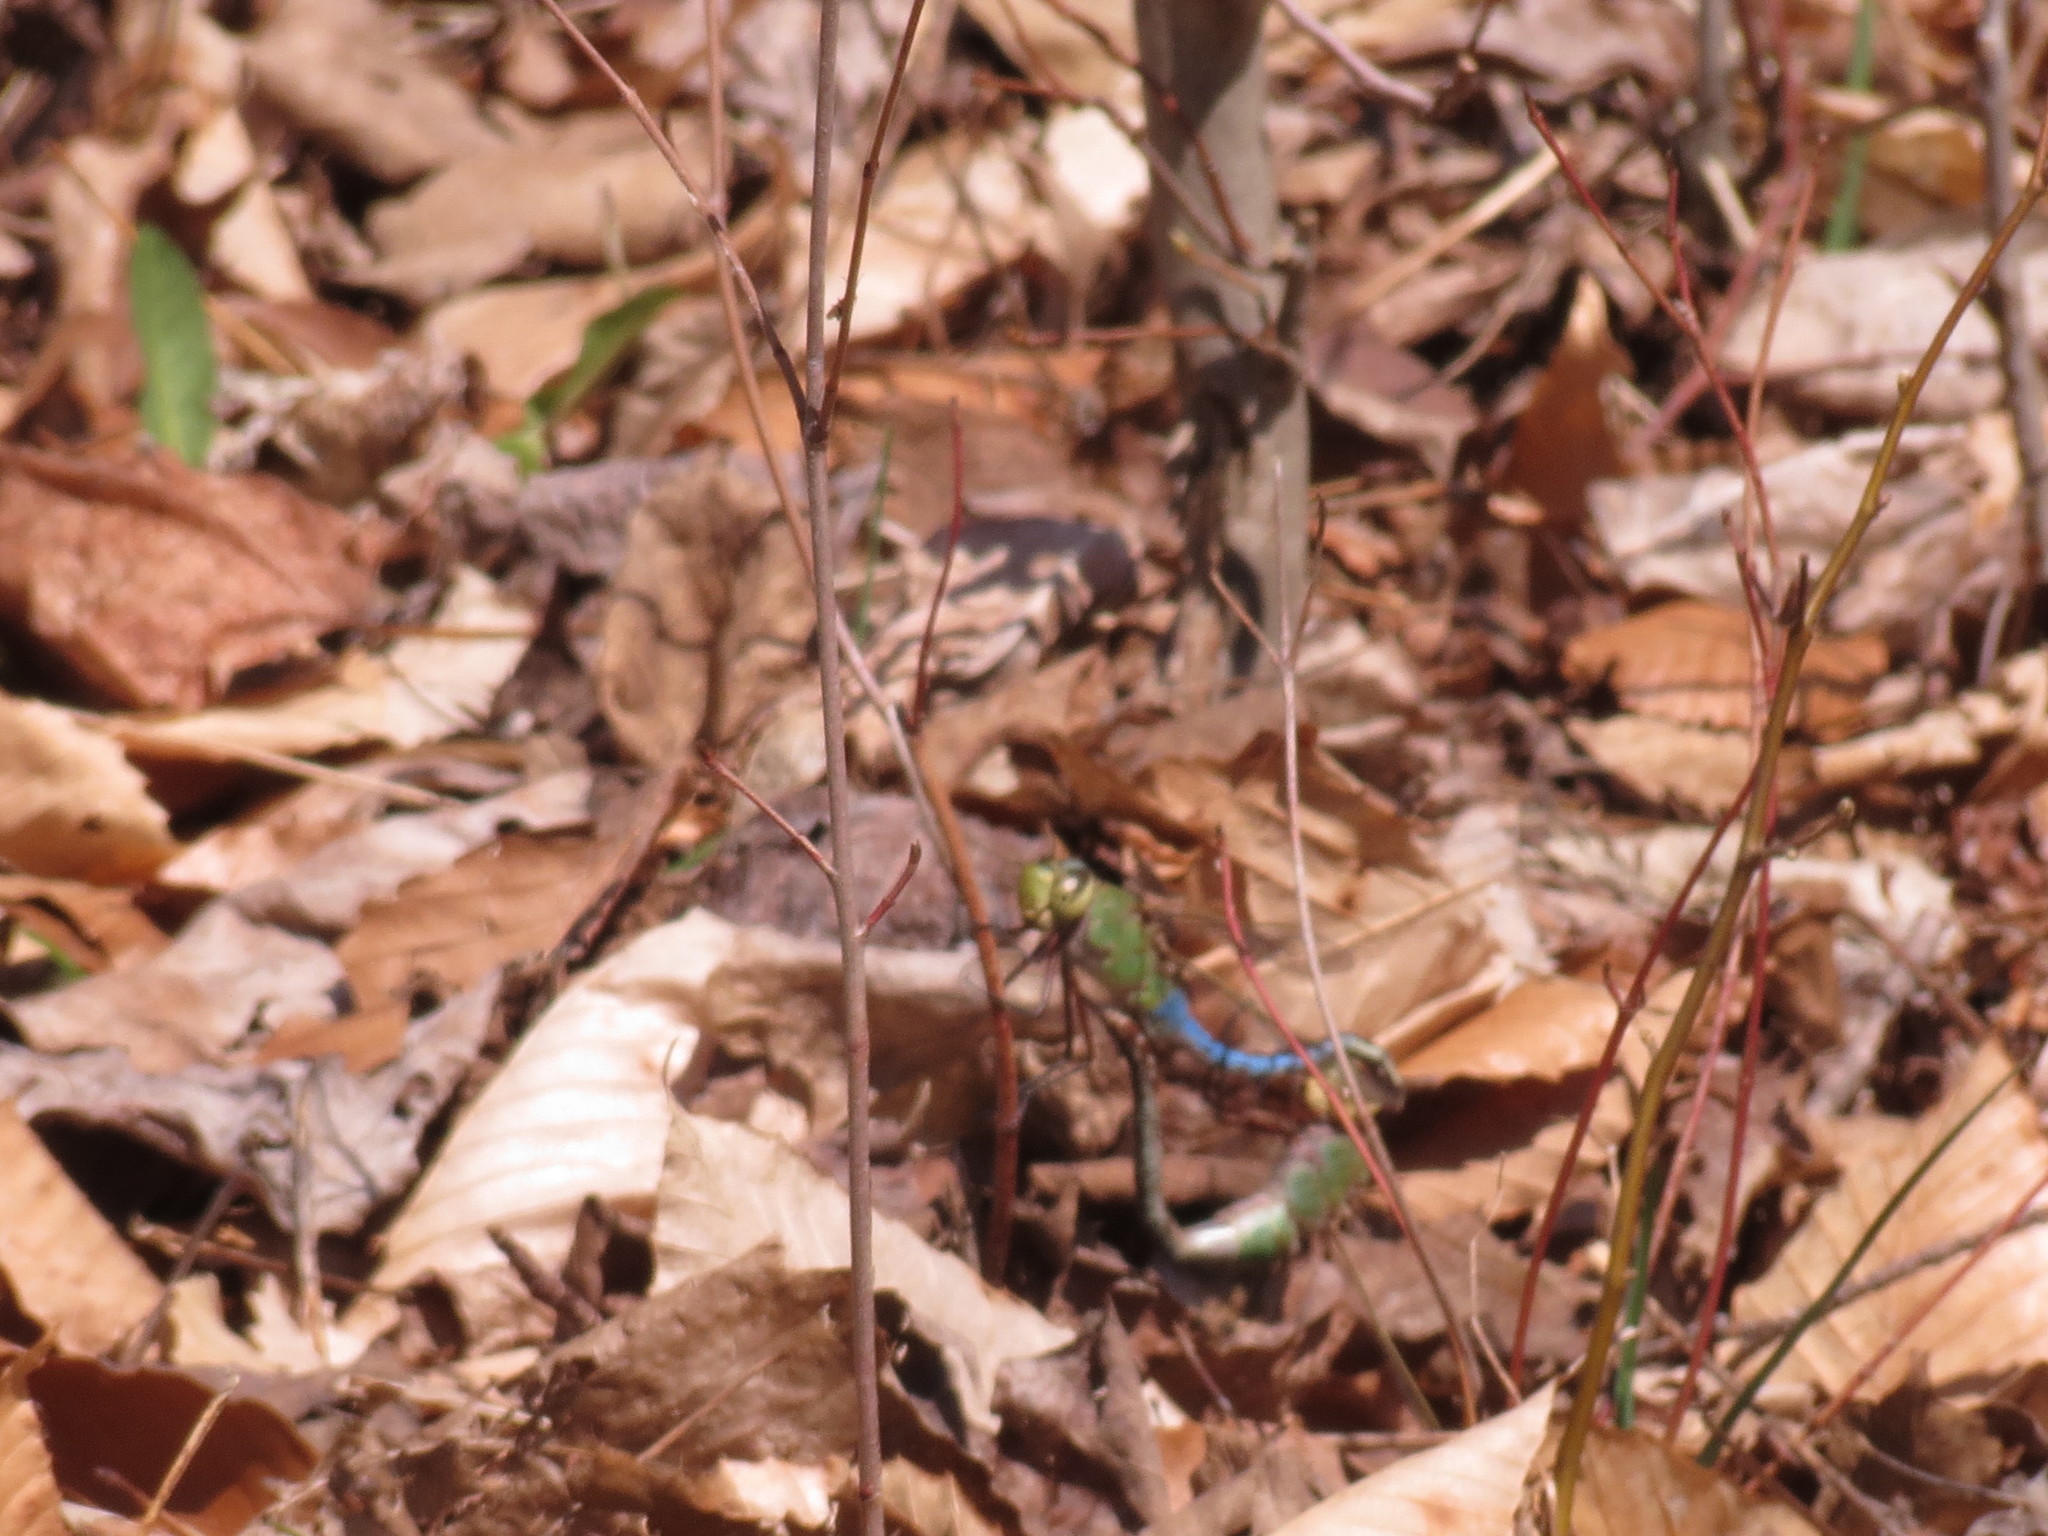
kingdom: Animalia
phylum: Arthropoda
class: Insecta
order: Odonata
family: Aeshnidae
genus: Anax
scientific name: Anax junius
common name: Common green darner
